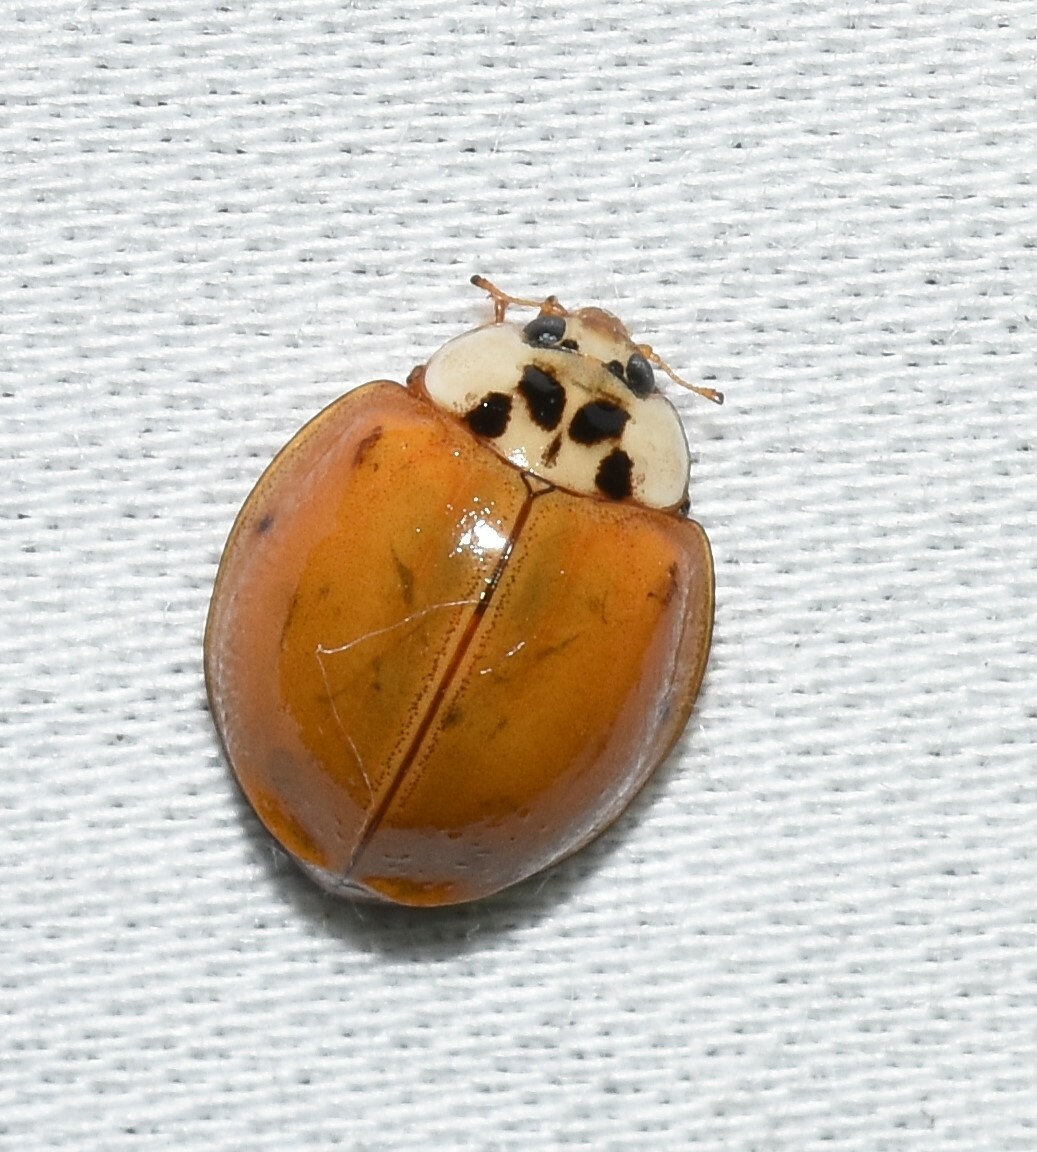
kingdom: Animalia
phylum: Arthropoda
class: Insecta
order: Coleoptera
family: Coccinellidae
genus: Harmonia
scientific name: Harmonia axyridis
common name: Harlequin ladybird
